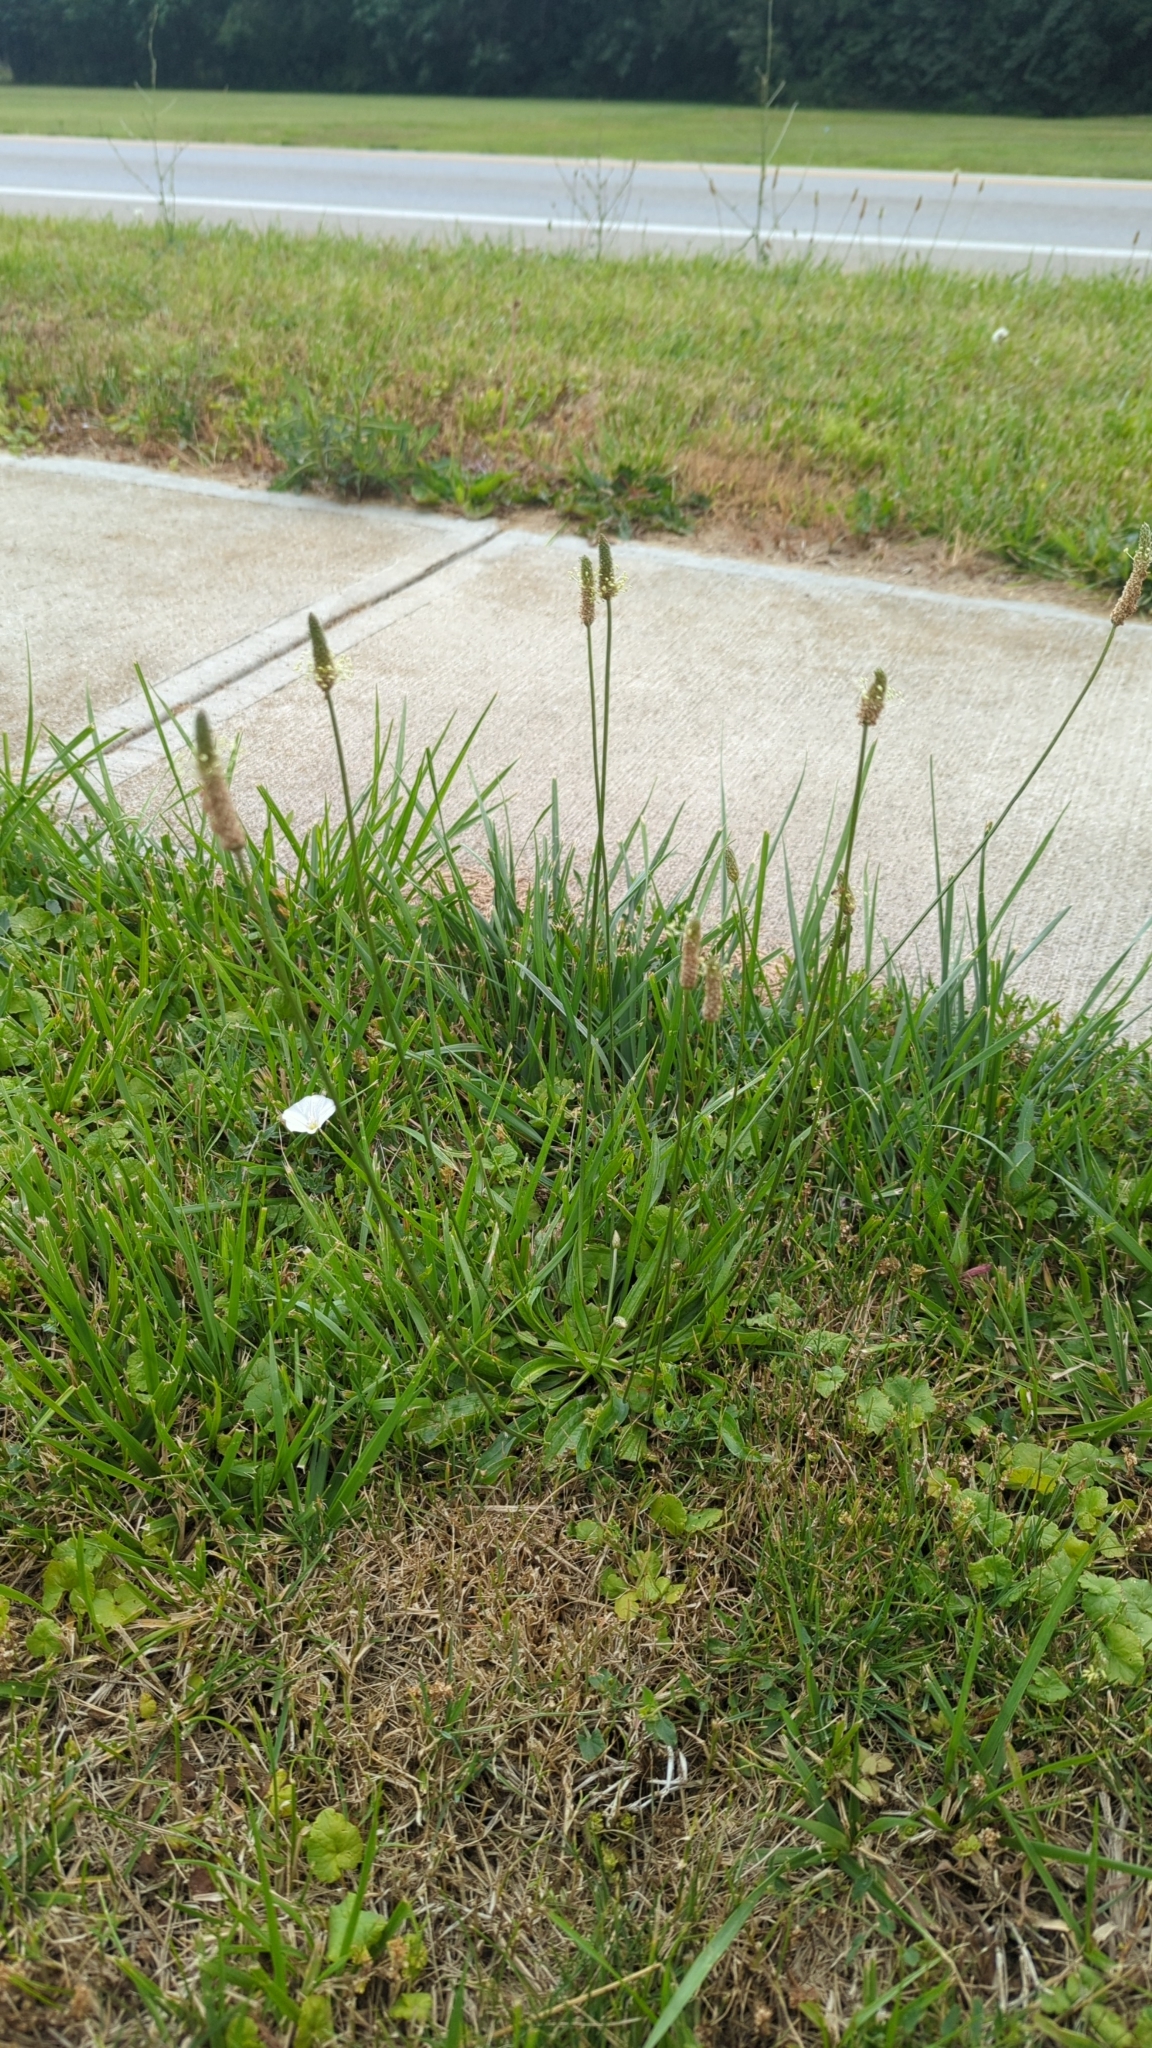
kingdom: Plantae
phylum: Tracheophyta
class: Magnoliopsida
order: Lamiales
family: Plantaginaceae
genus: Plantago
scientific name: Plantago lanceolata
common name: Ribwort plantain
